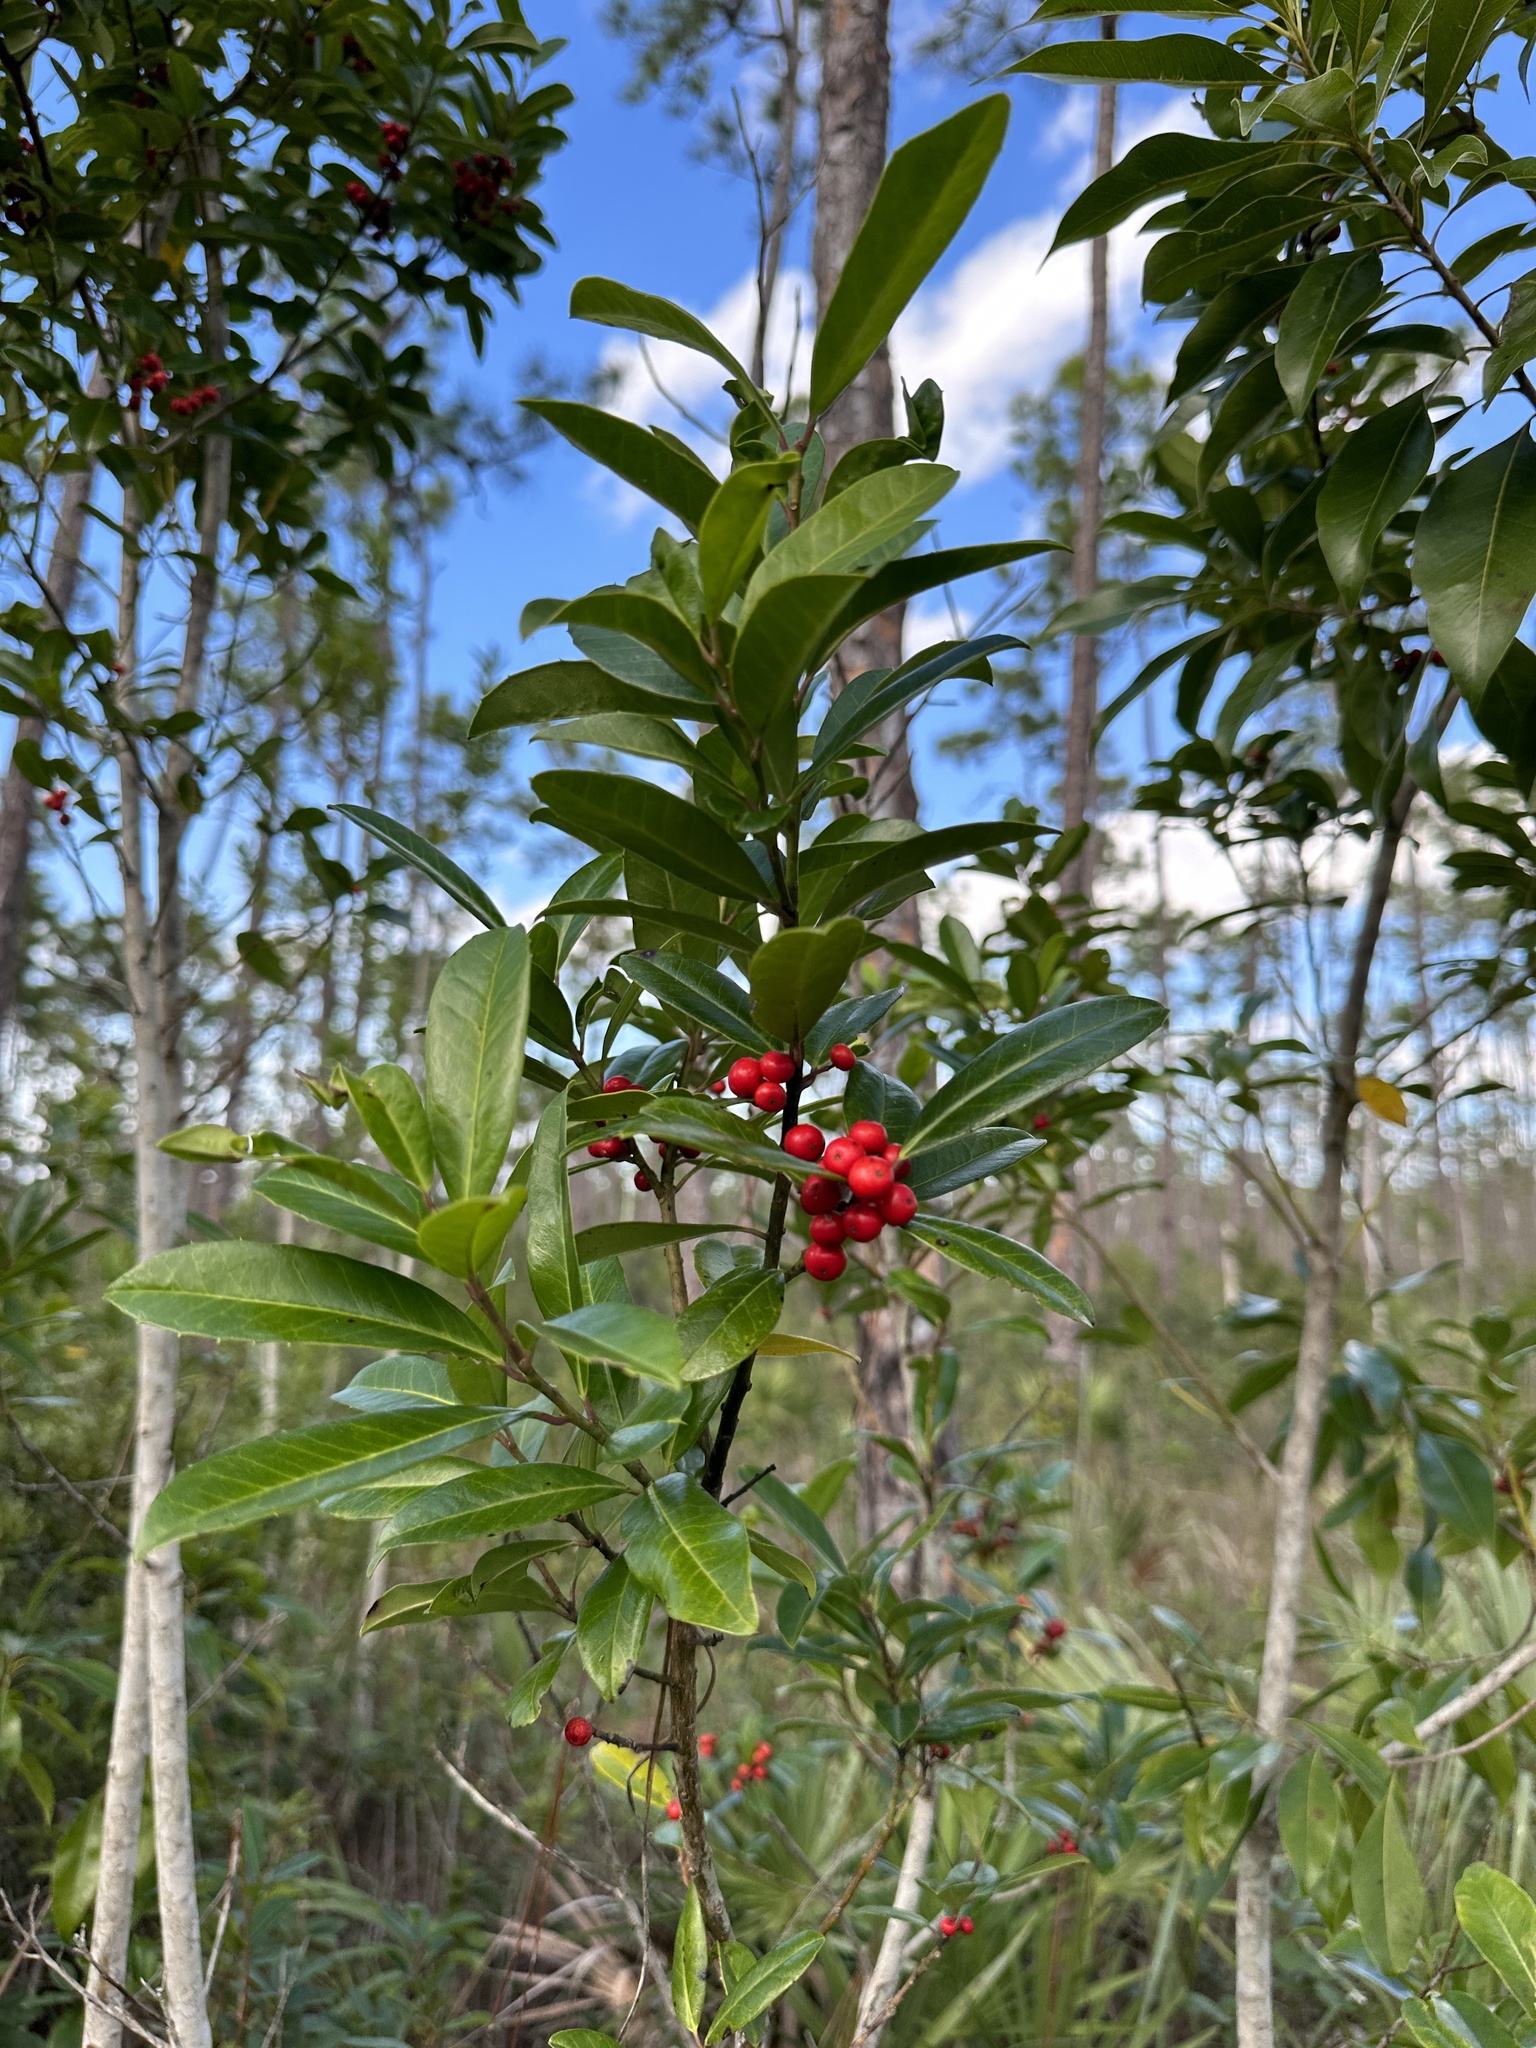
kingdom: Plantae
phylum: Tracheophyta
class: Magnoliopsida
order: Aquifoliales
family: Aquifoliaceae
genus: Ilex
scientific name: Ilex cassine
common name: Dahoon
